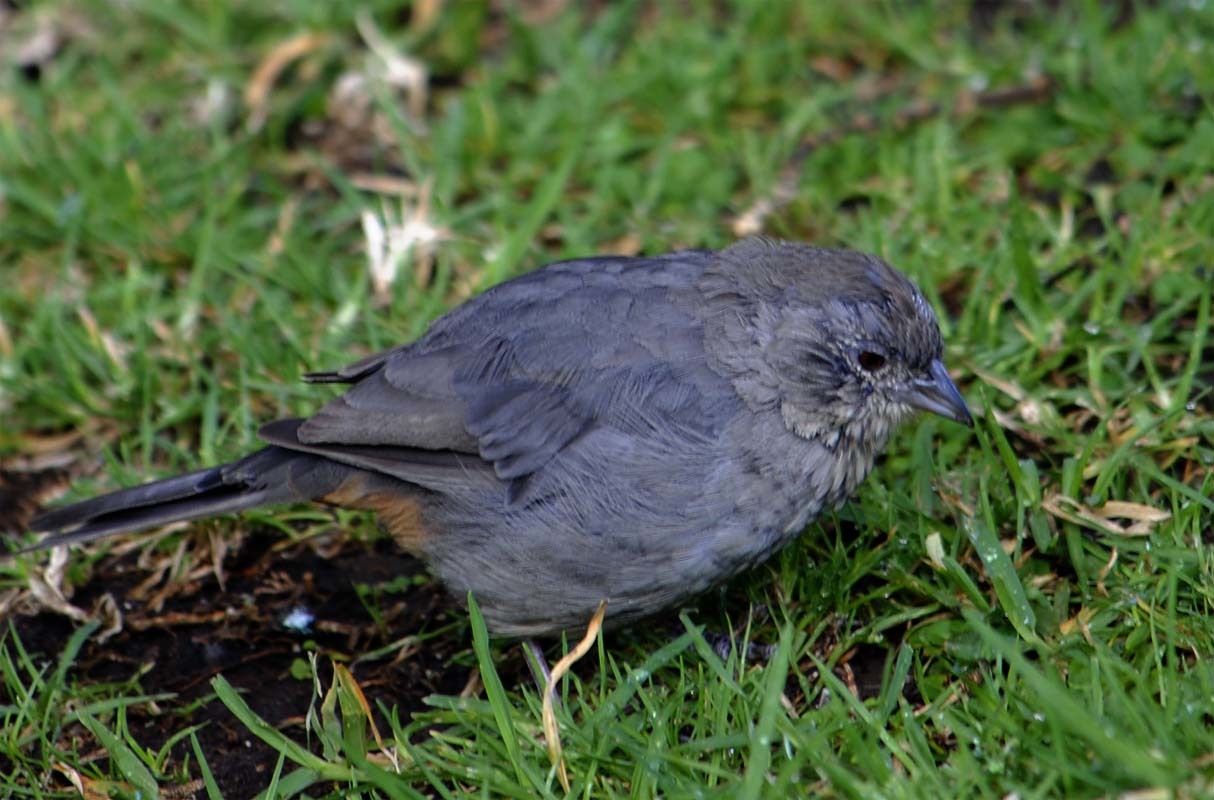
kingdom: Animalia
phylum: Chordata
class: Aves
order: Passeriformes
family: Passerellidae
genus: Melozone
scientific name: Melozone fusca
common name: Canyon towhee
